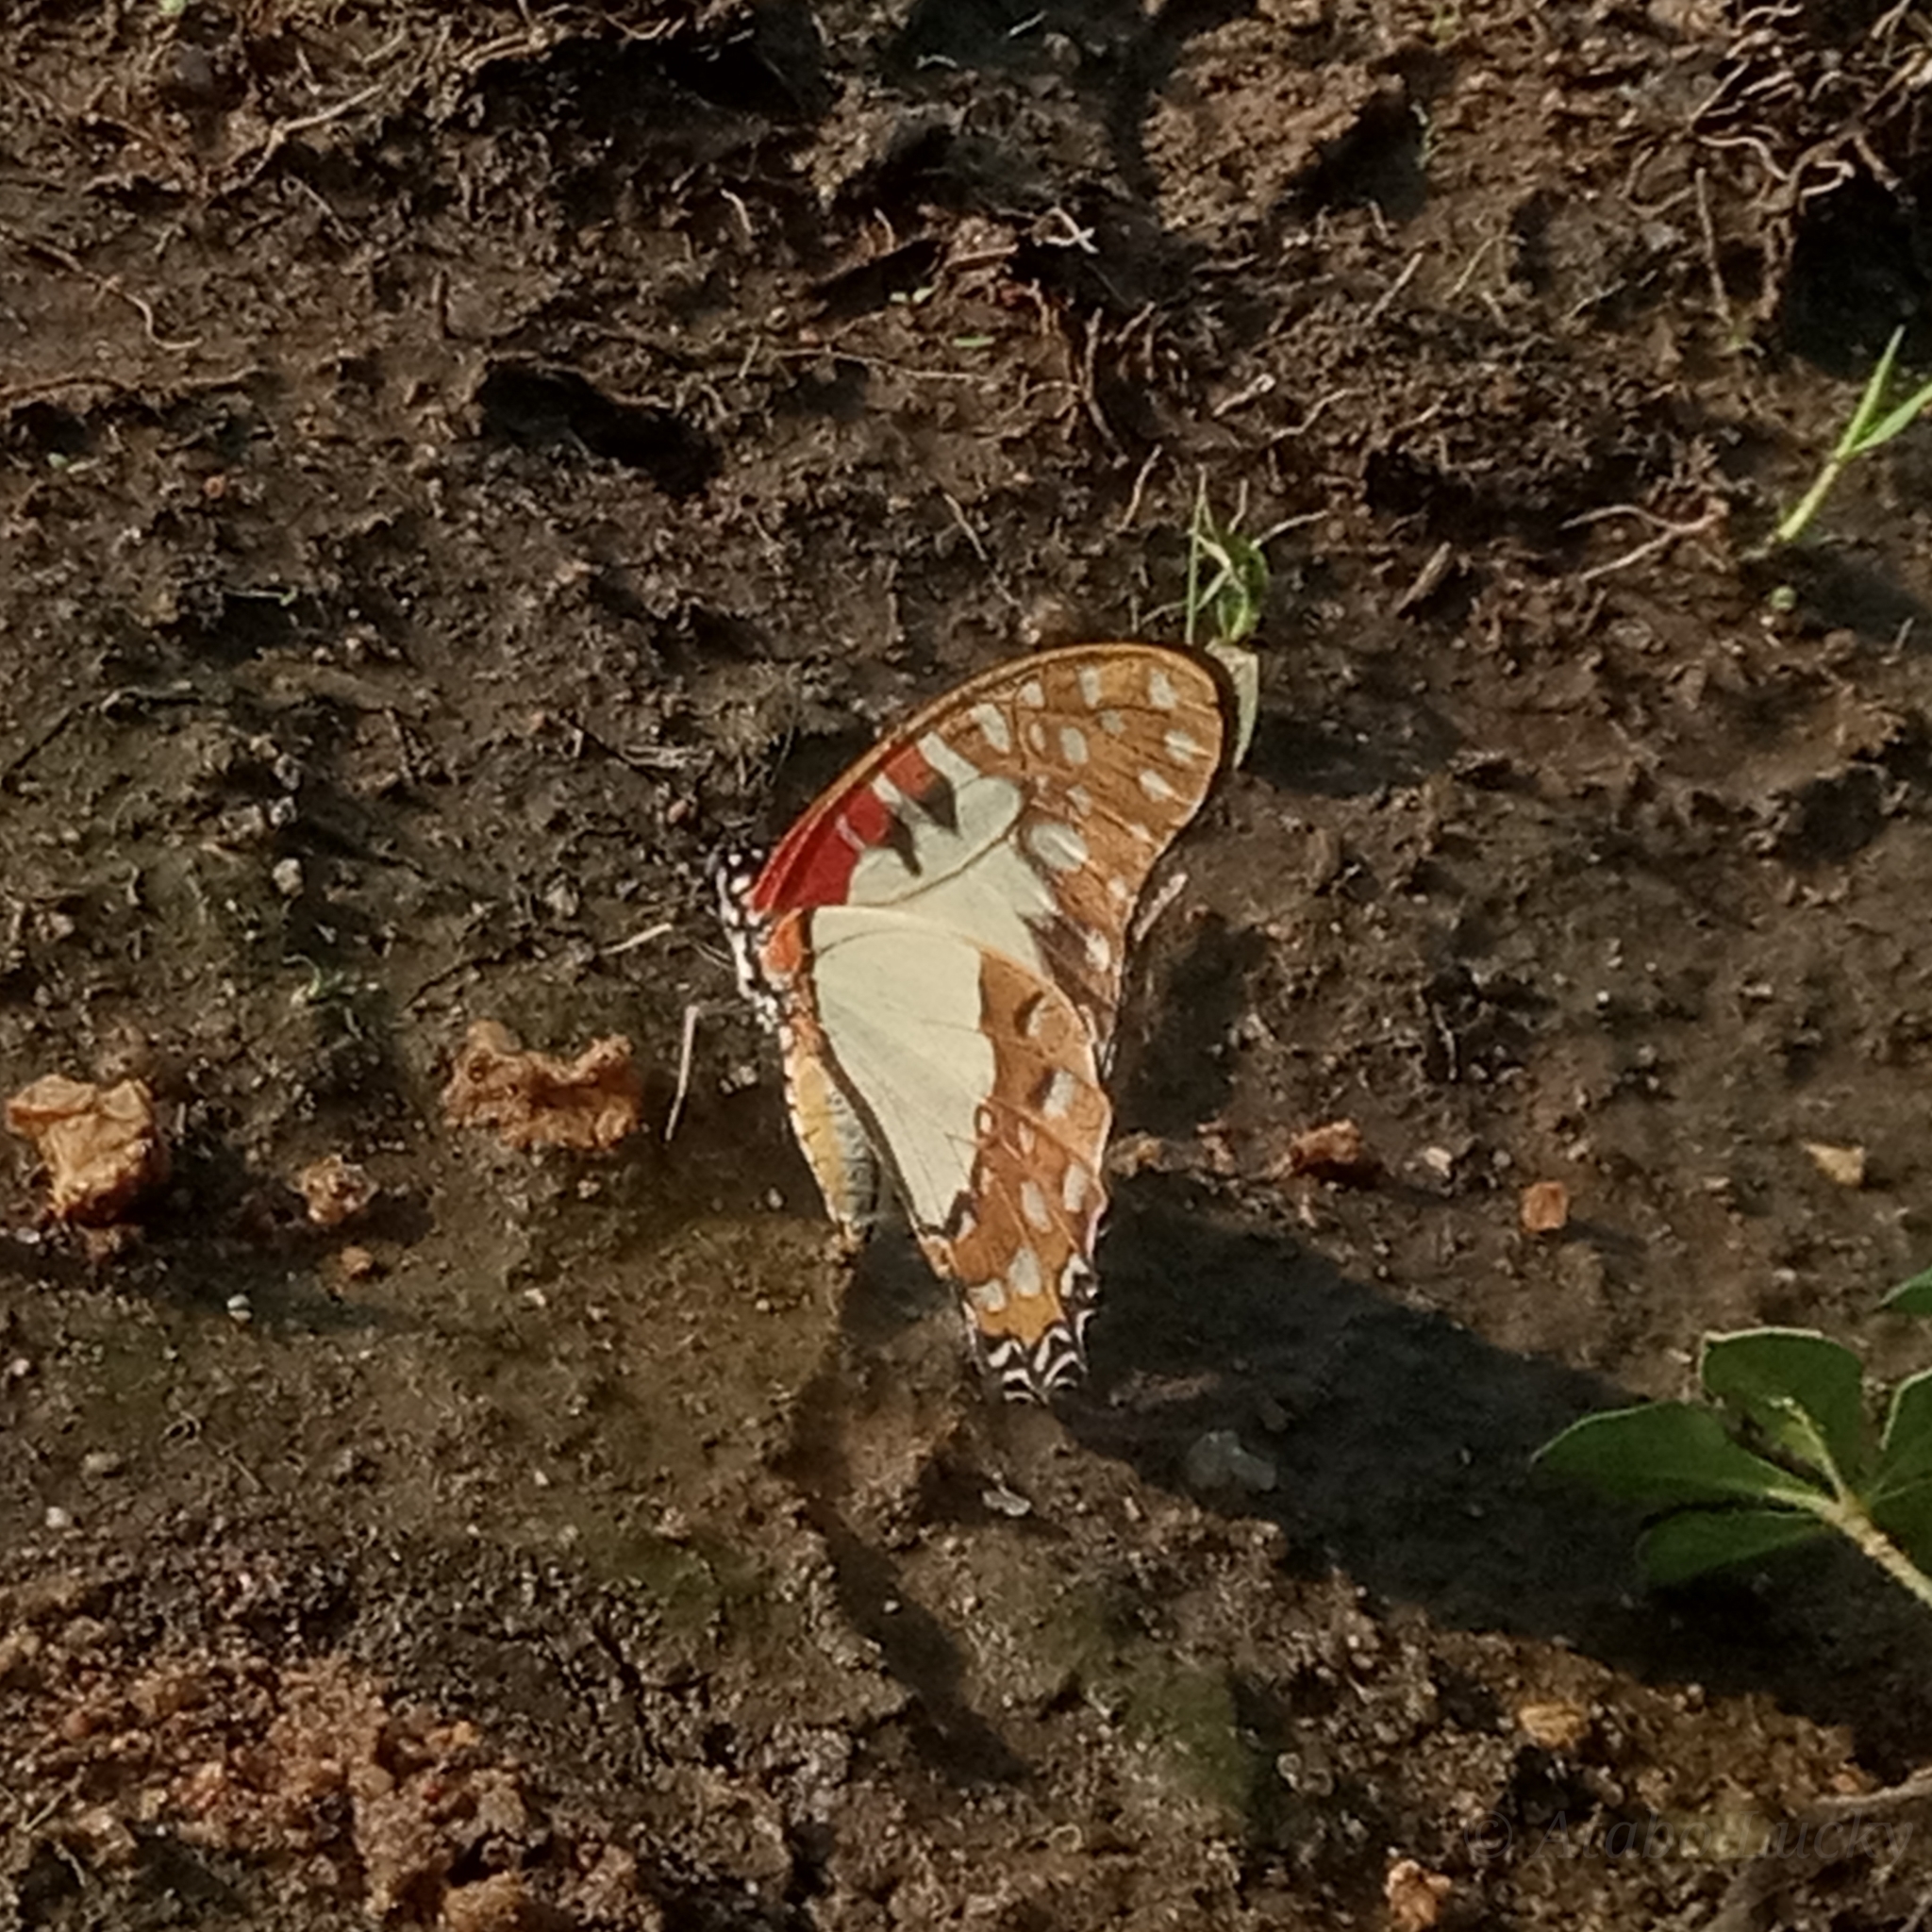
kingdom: Animalia
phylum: Arthropoda
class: Insecta
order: Lepidoptera
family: Papilionidae
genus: Graphium
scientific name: Graphium angolanus
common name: Angola white-lady swordtail
